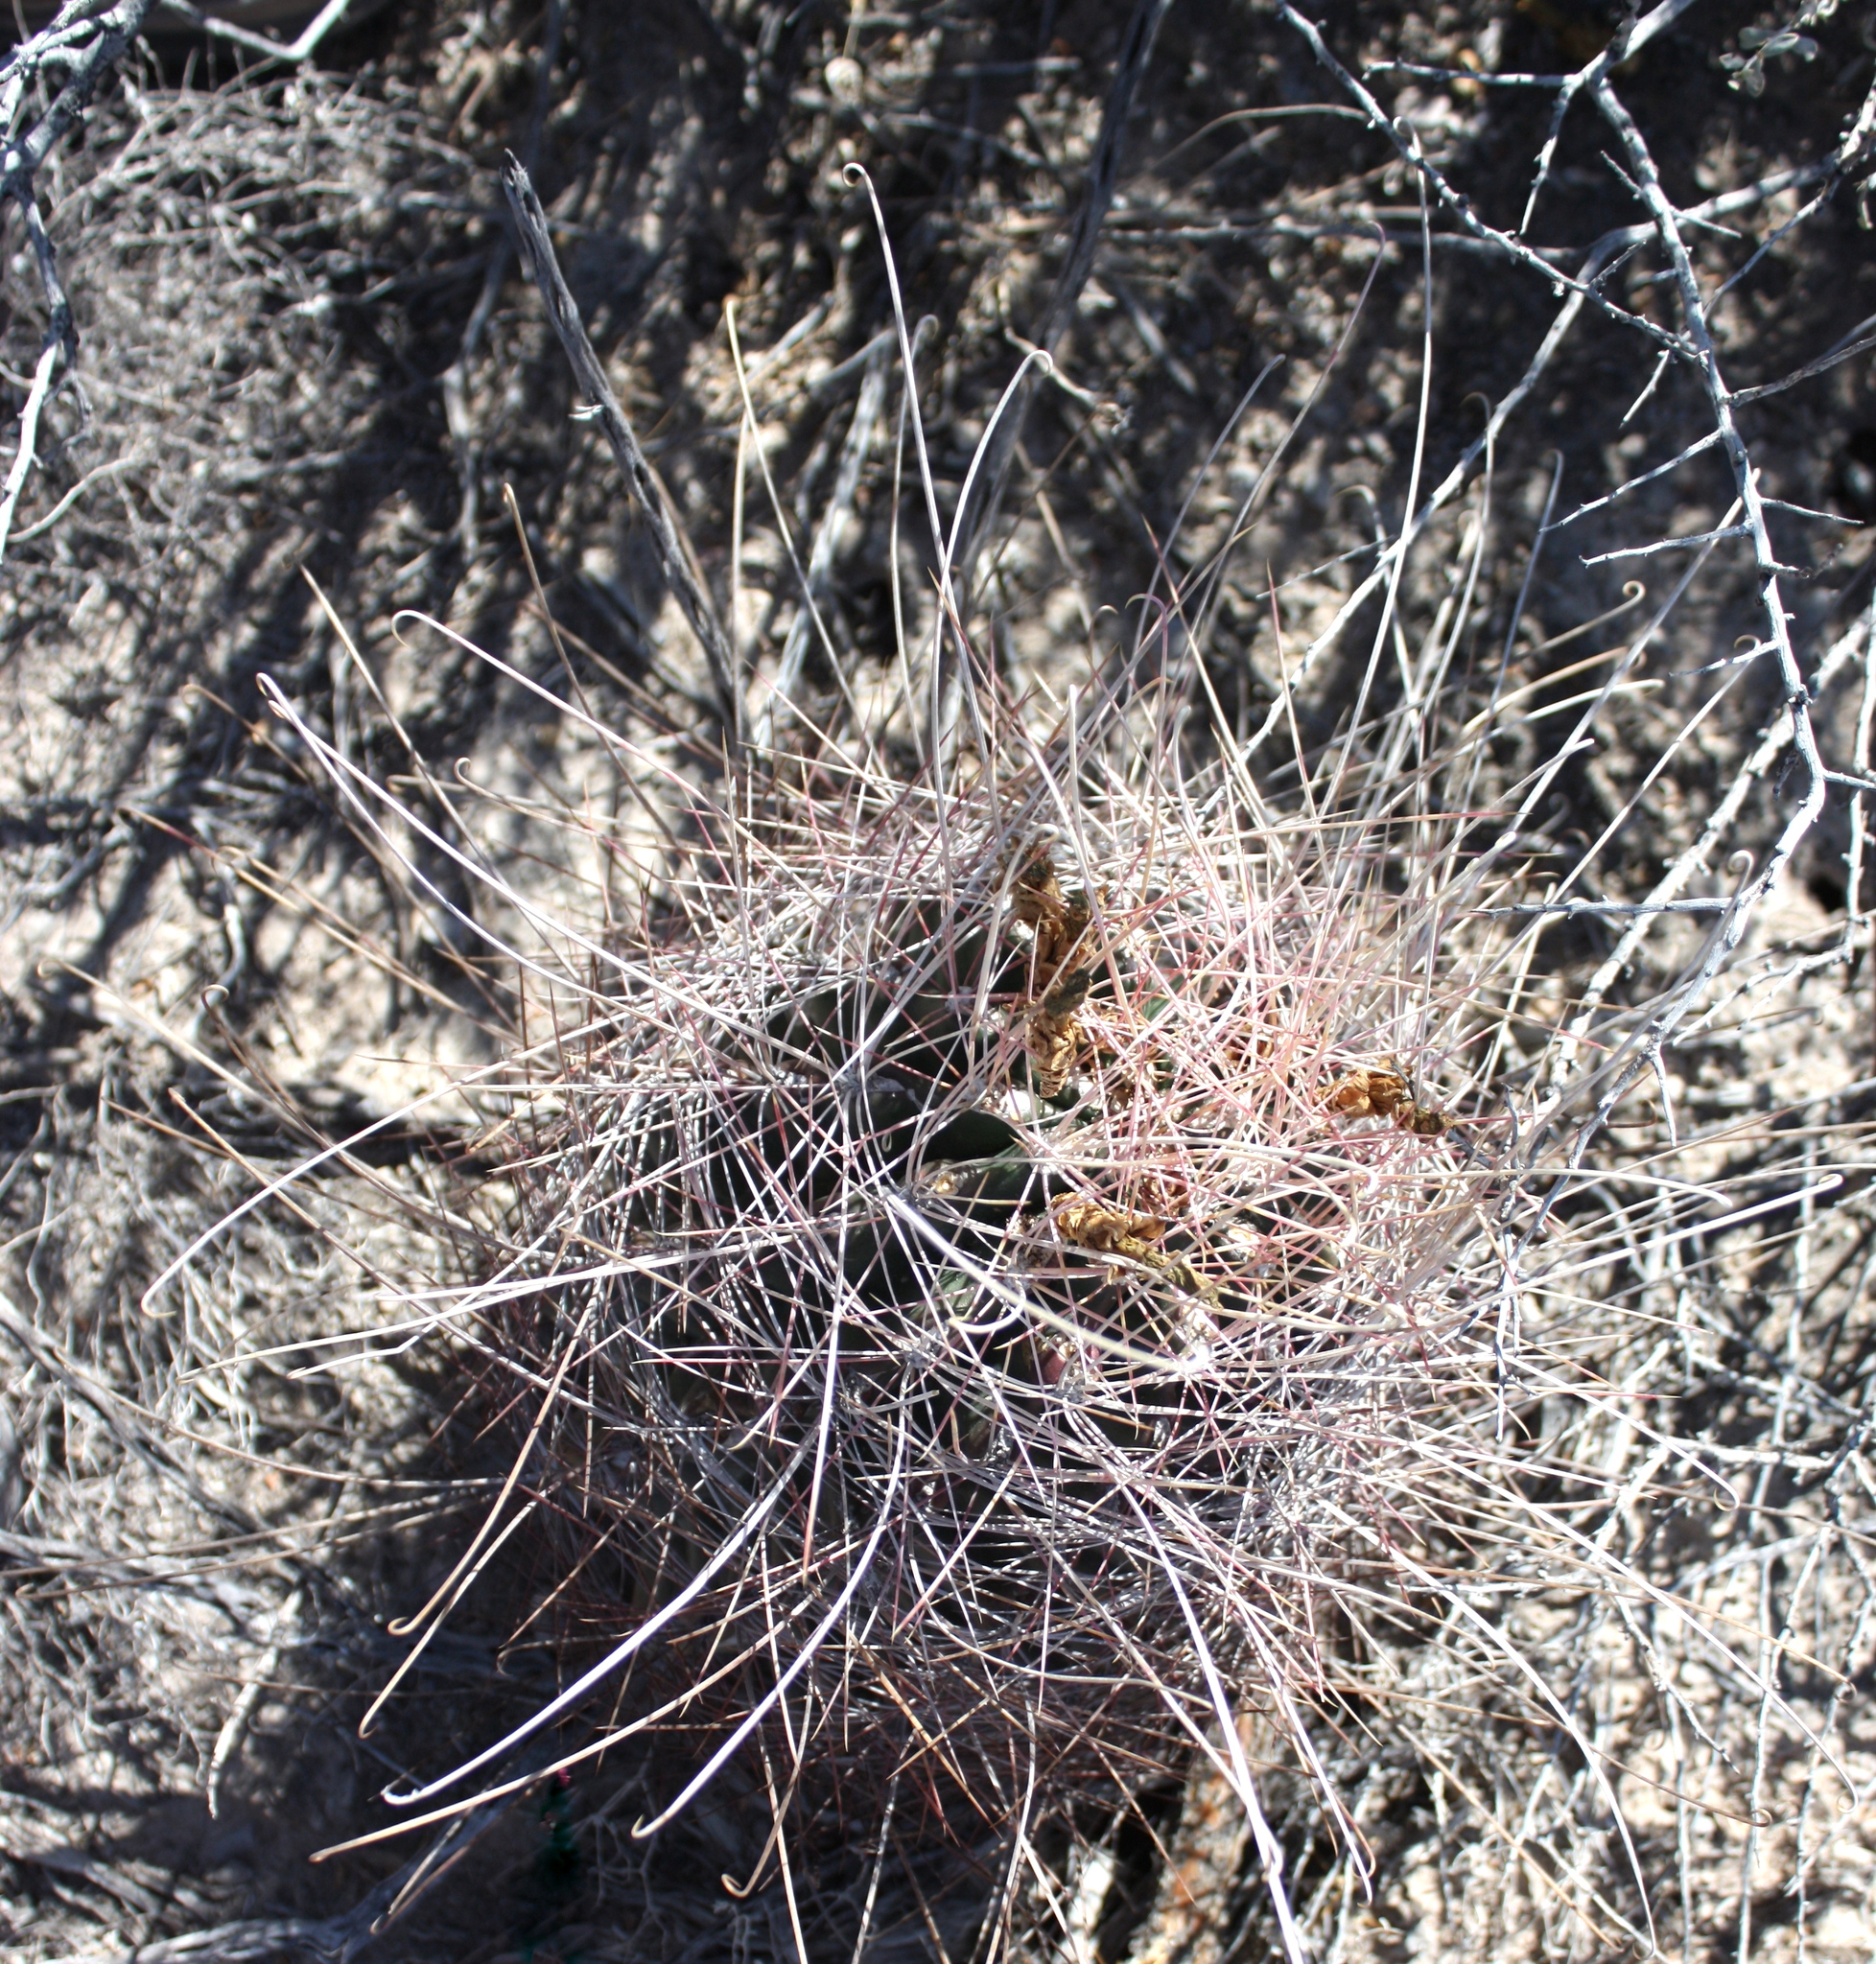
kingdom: Plantae
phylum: Tracheophyta
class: Magnoliopsida
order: Caryophyllales
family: Cactaceae
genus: Bisnaga
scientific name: Bisnaga hamatacantha
